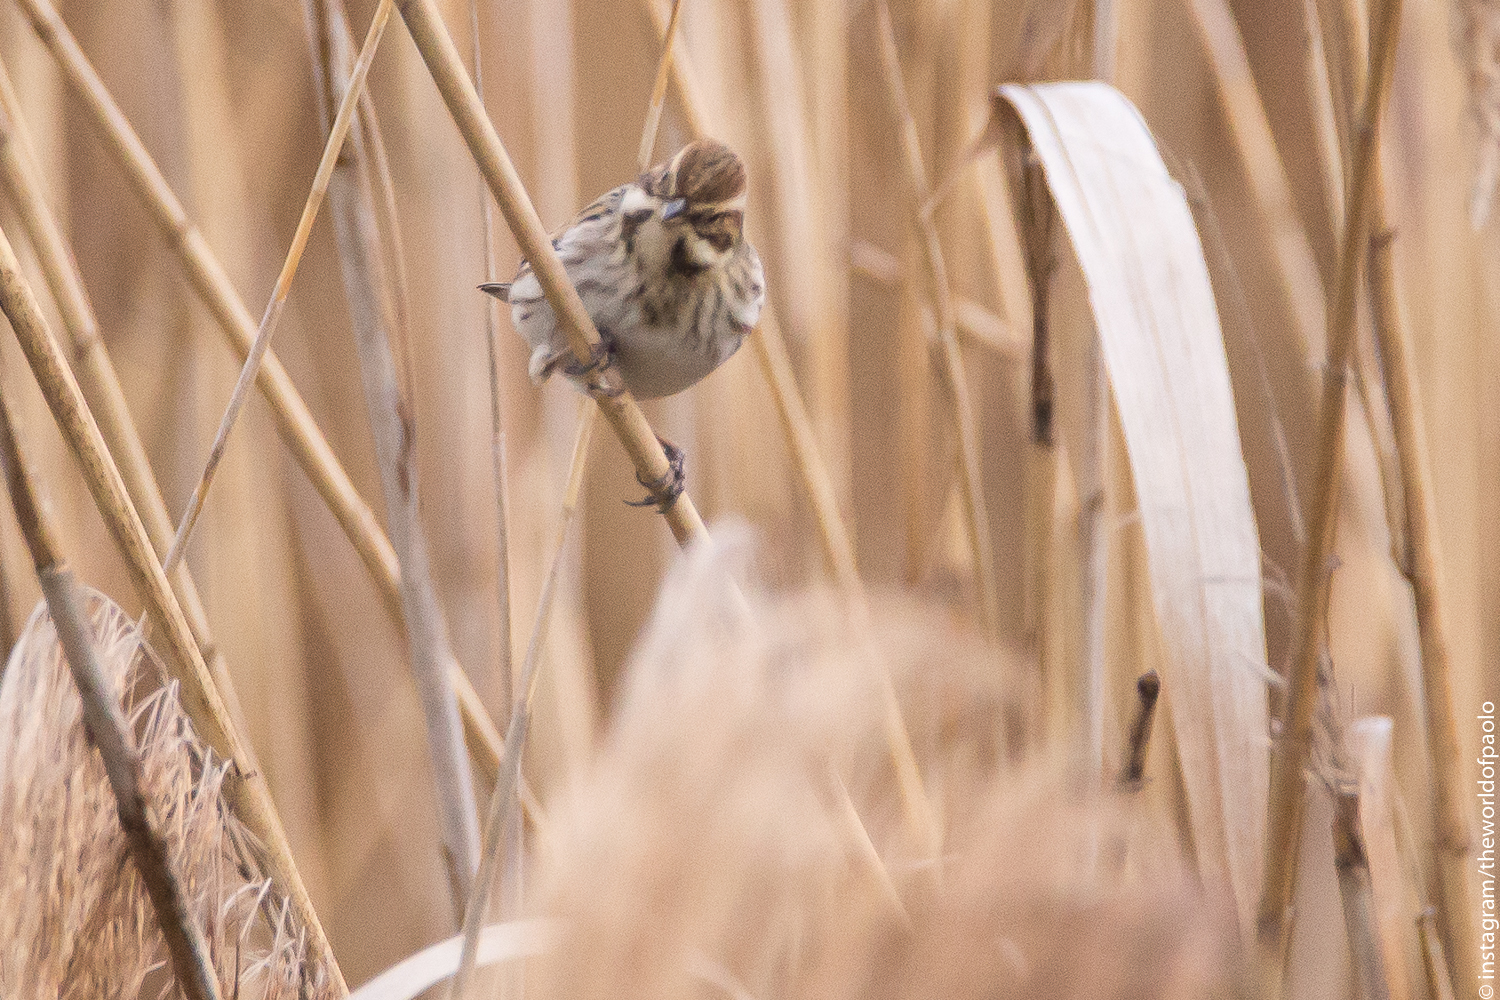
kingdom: Animalia
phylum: Chordata
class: Aves
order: Passeriformes
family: Emberizidae
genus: Emberiza
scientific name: Emberiza schoeniclus
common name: Reed bunting
